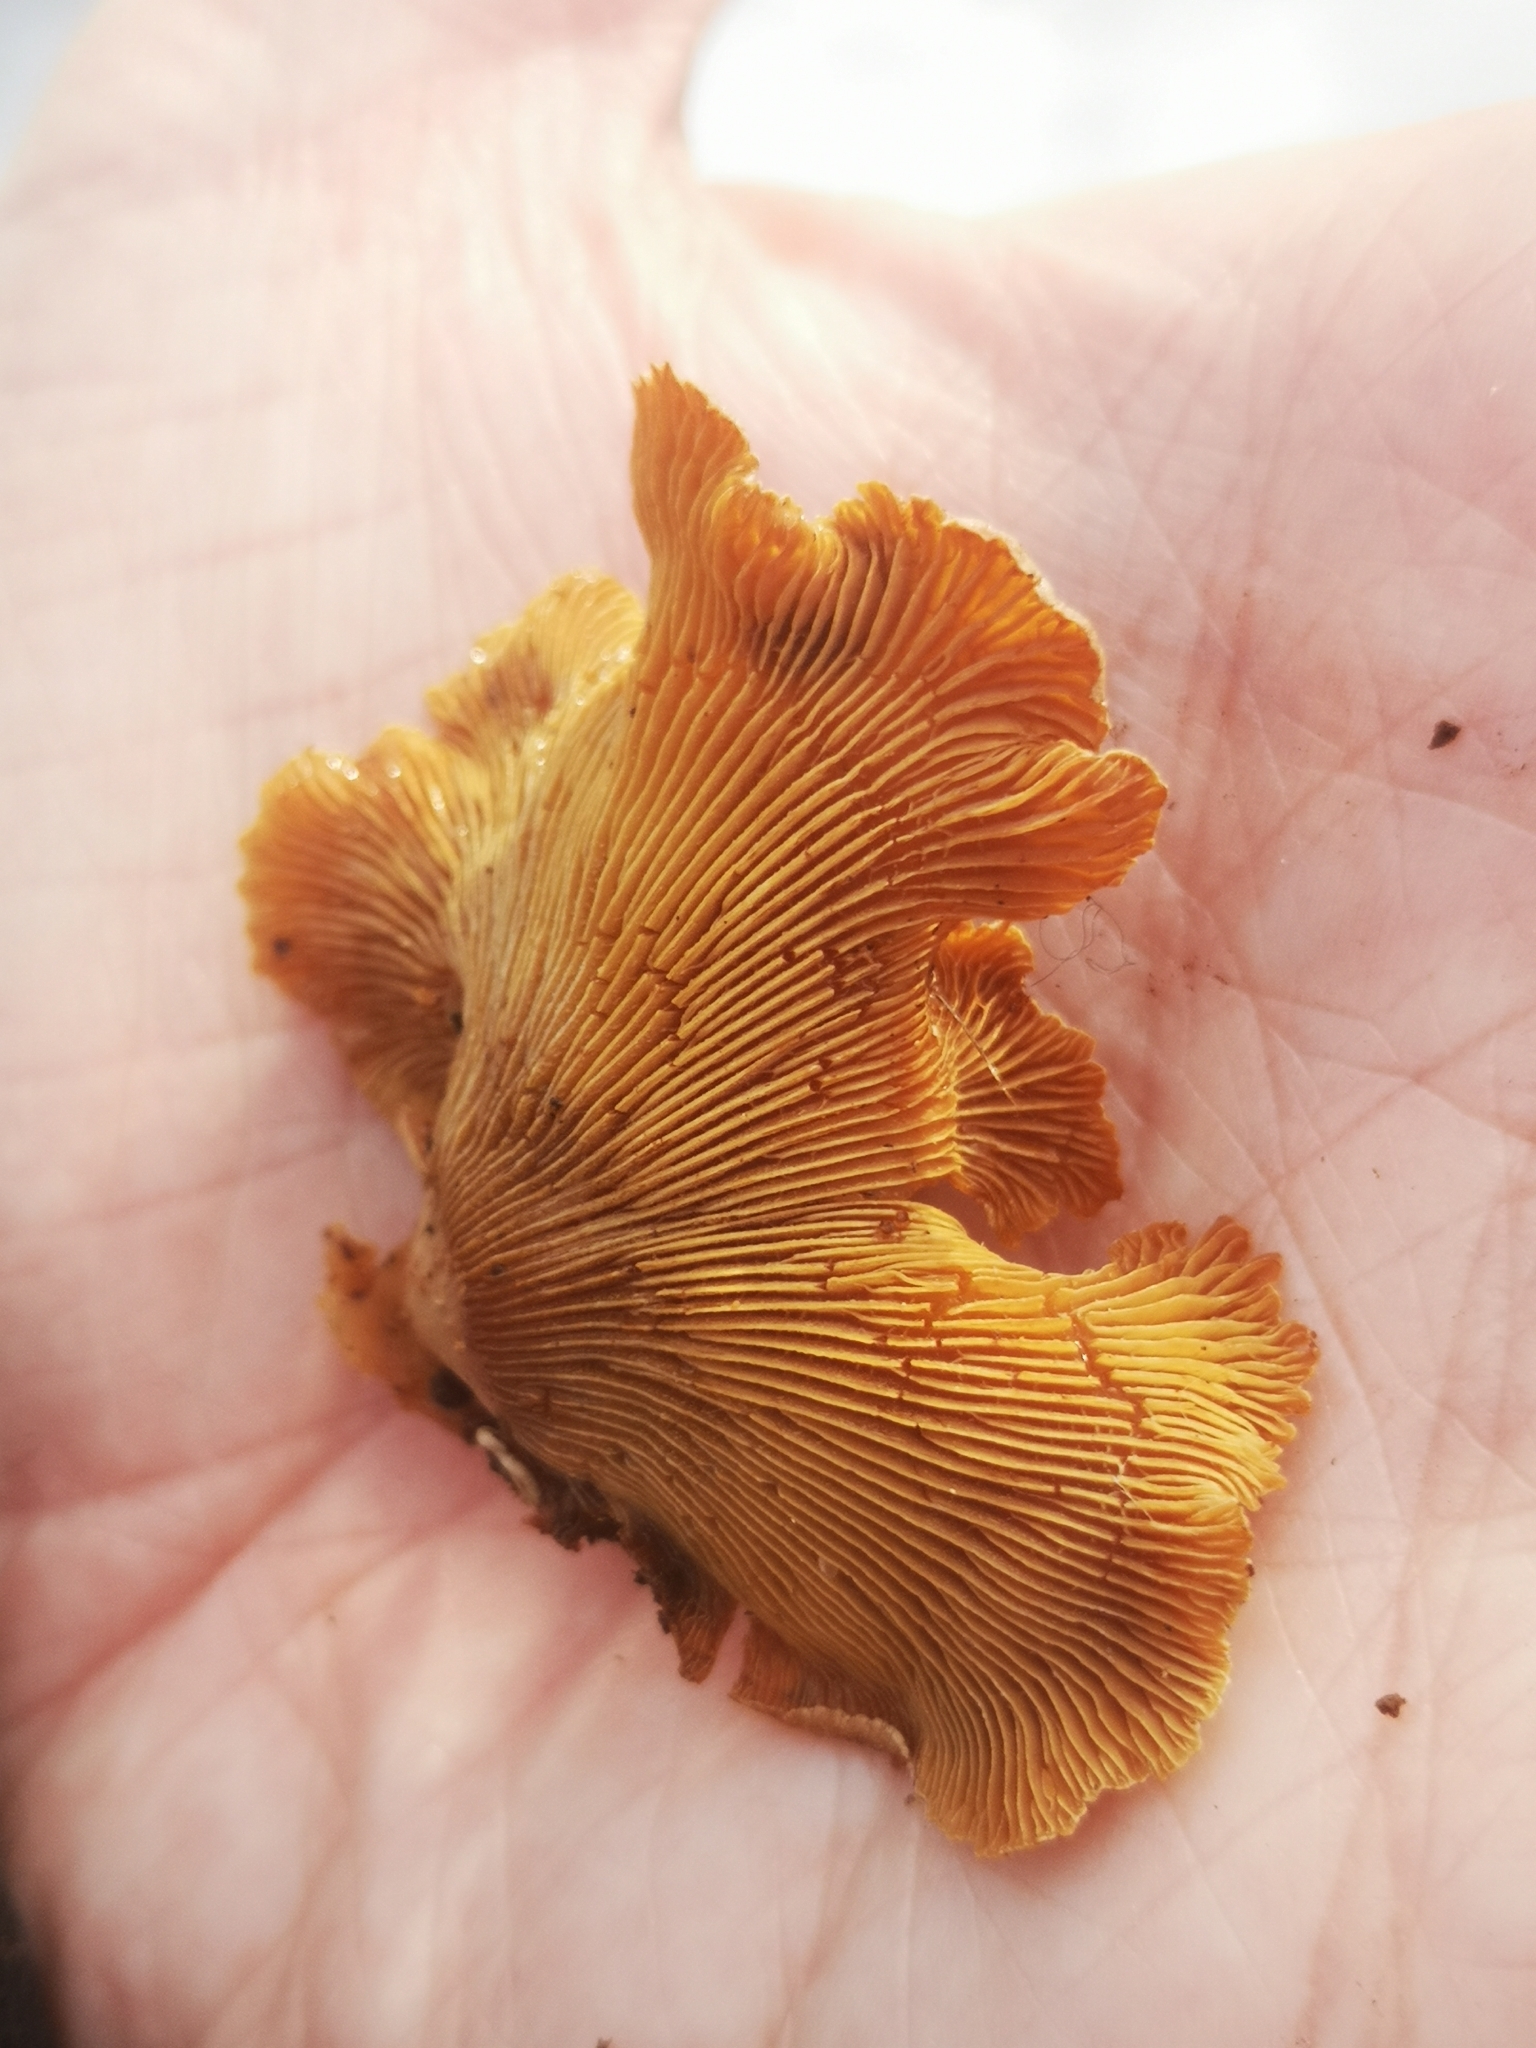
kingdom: Fungi
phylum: Basidiomycota
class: Agaricomycetes
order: Agaricales
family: Mycenaceae
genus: Panellus
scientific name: Panellus stipticus
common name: Bitter oysterling
